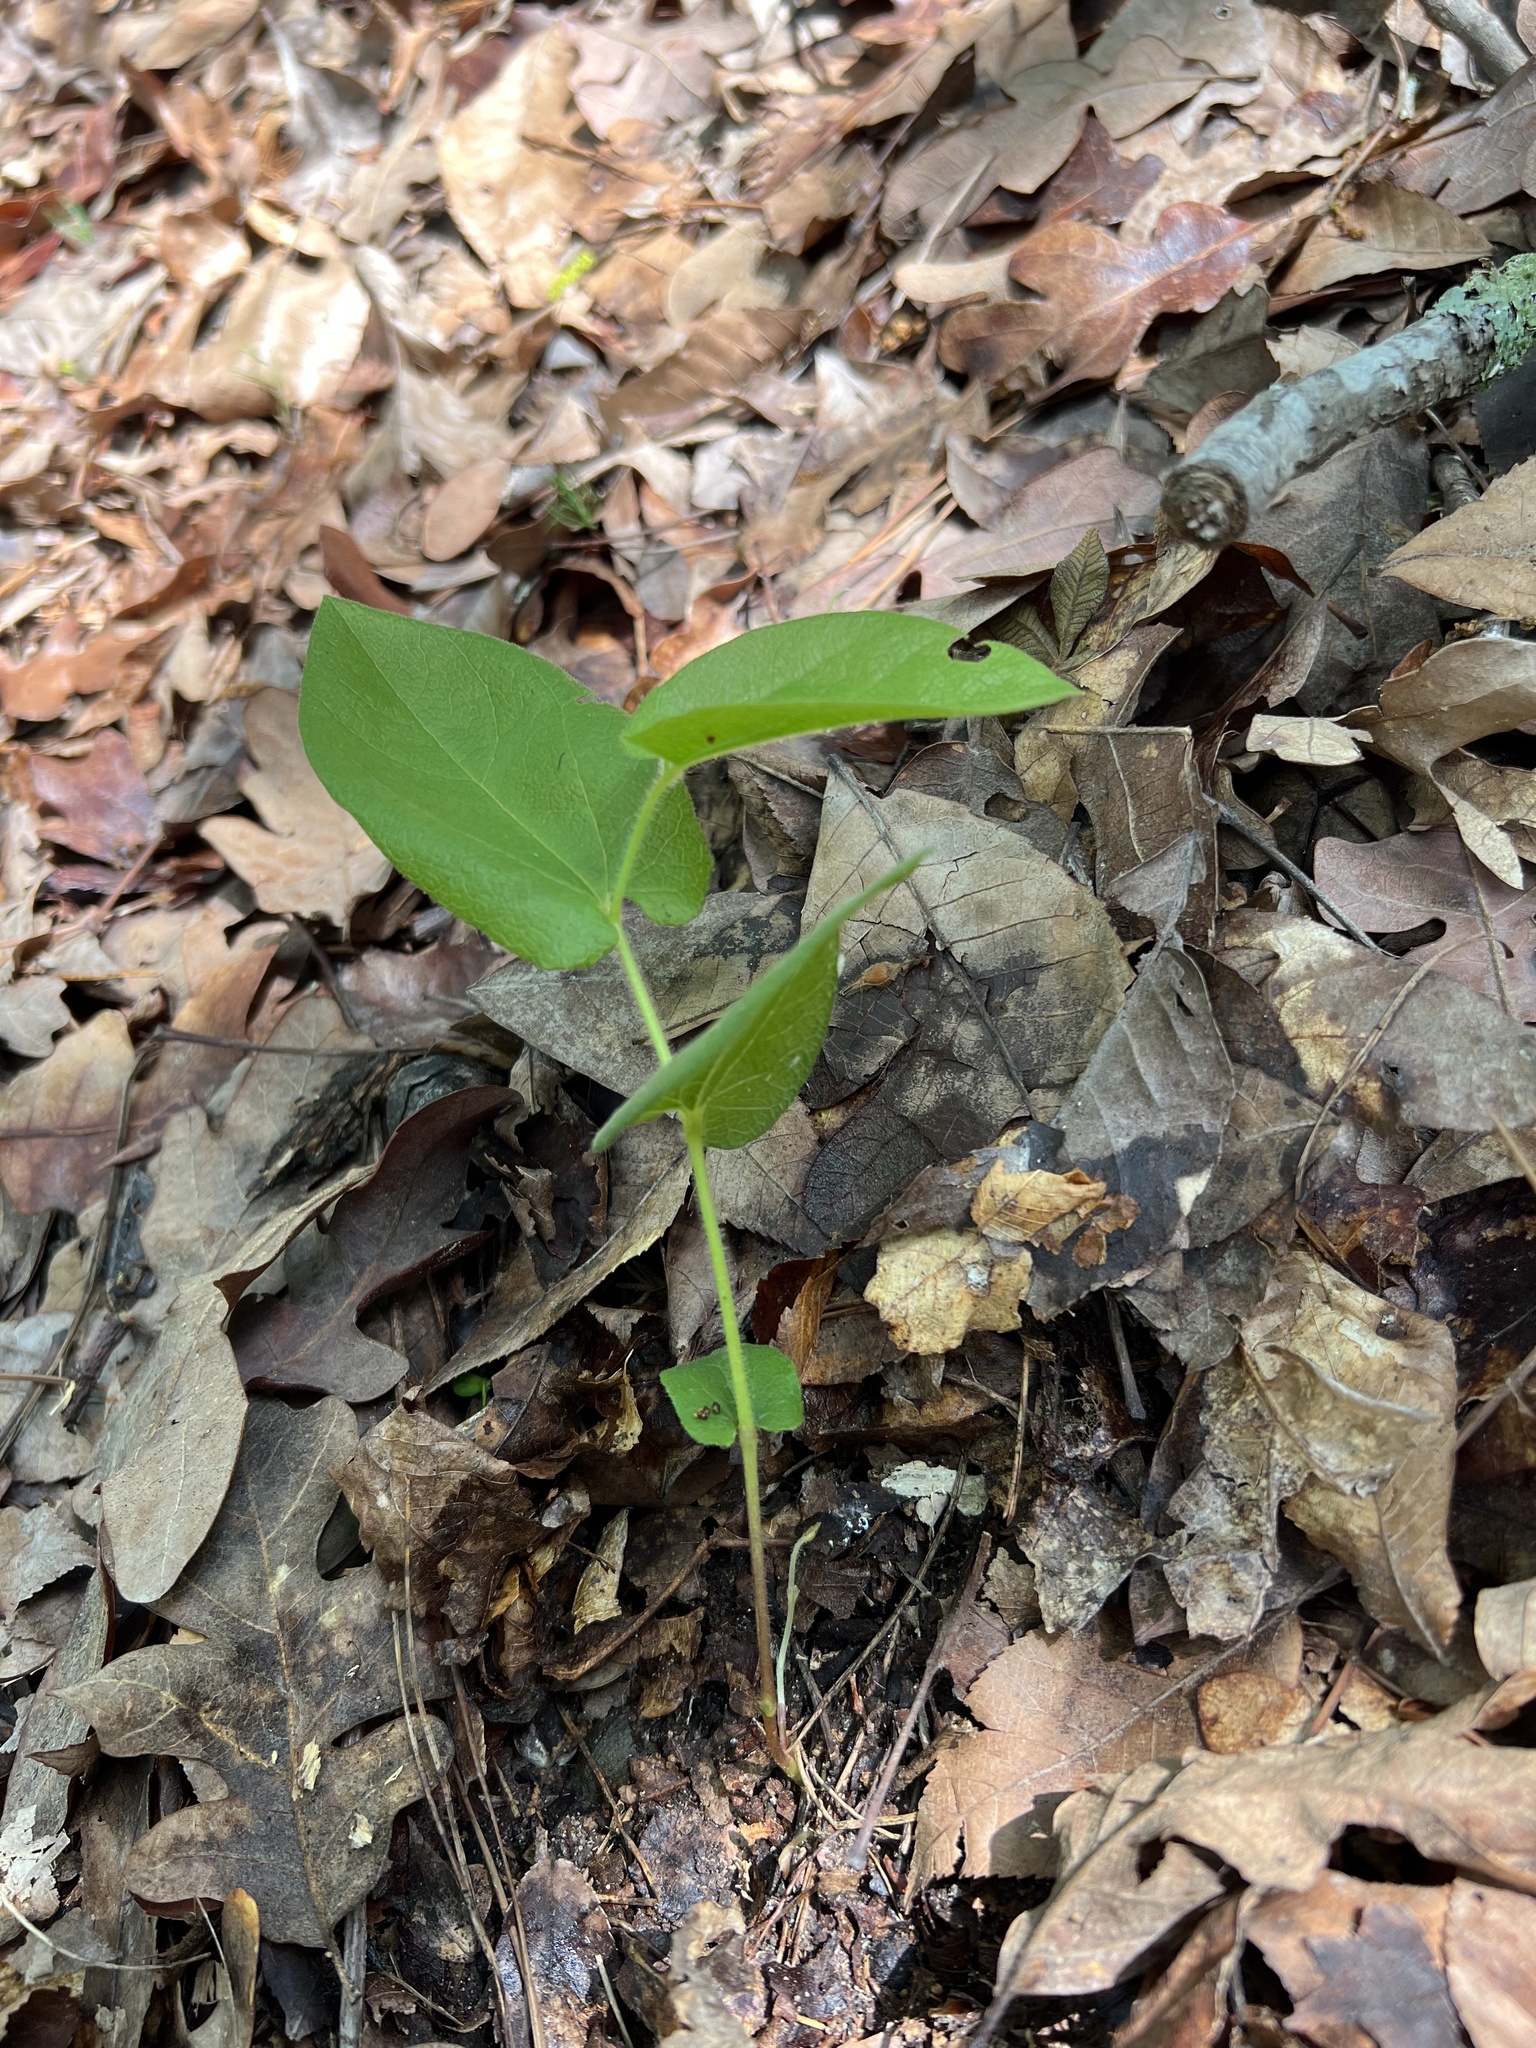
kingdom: Plantae
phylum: Tracheophyta
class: Magnoliopsida
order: Piperales
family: Aristolochiaceae
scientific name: Aristolochiaceae
